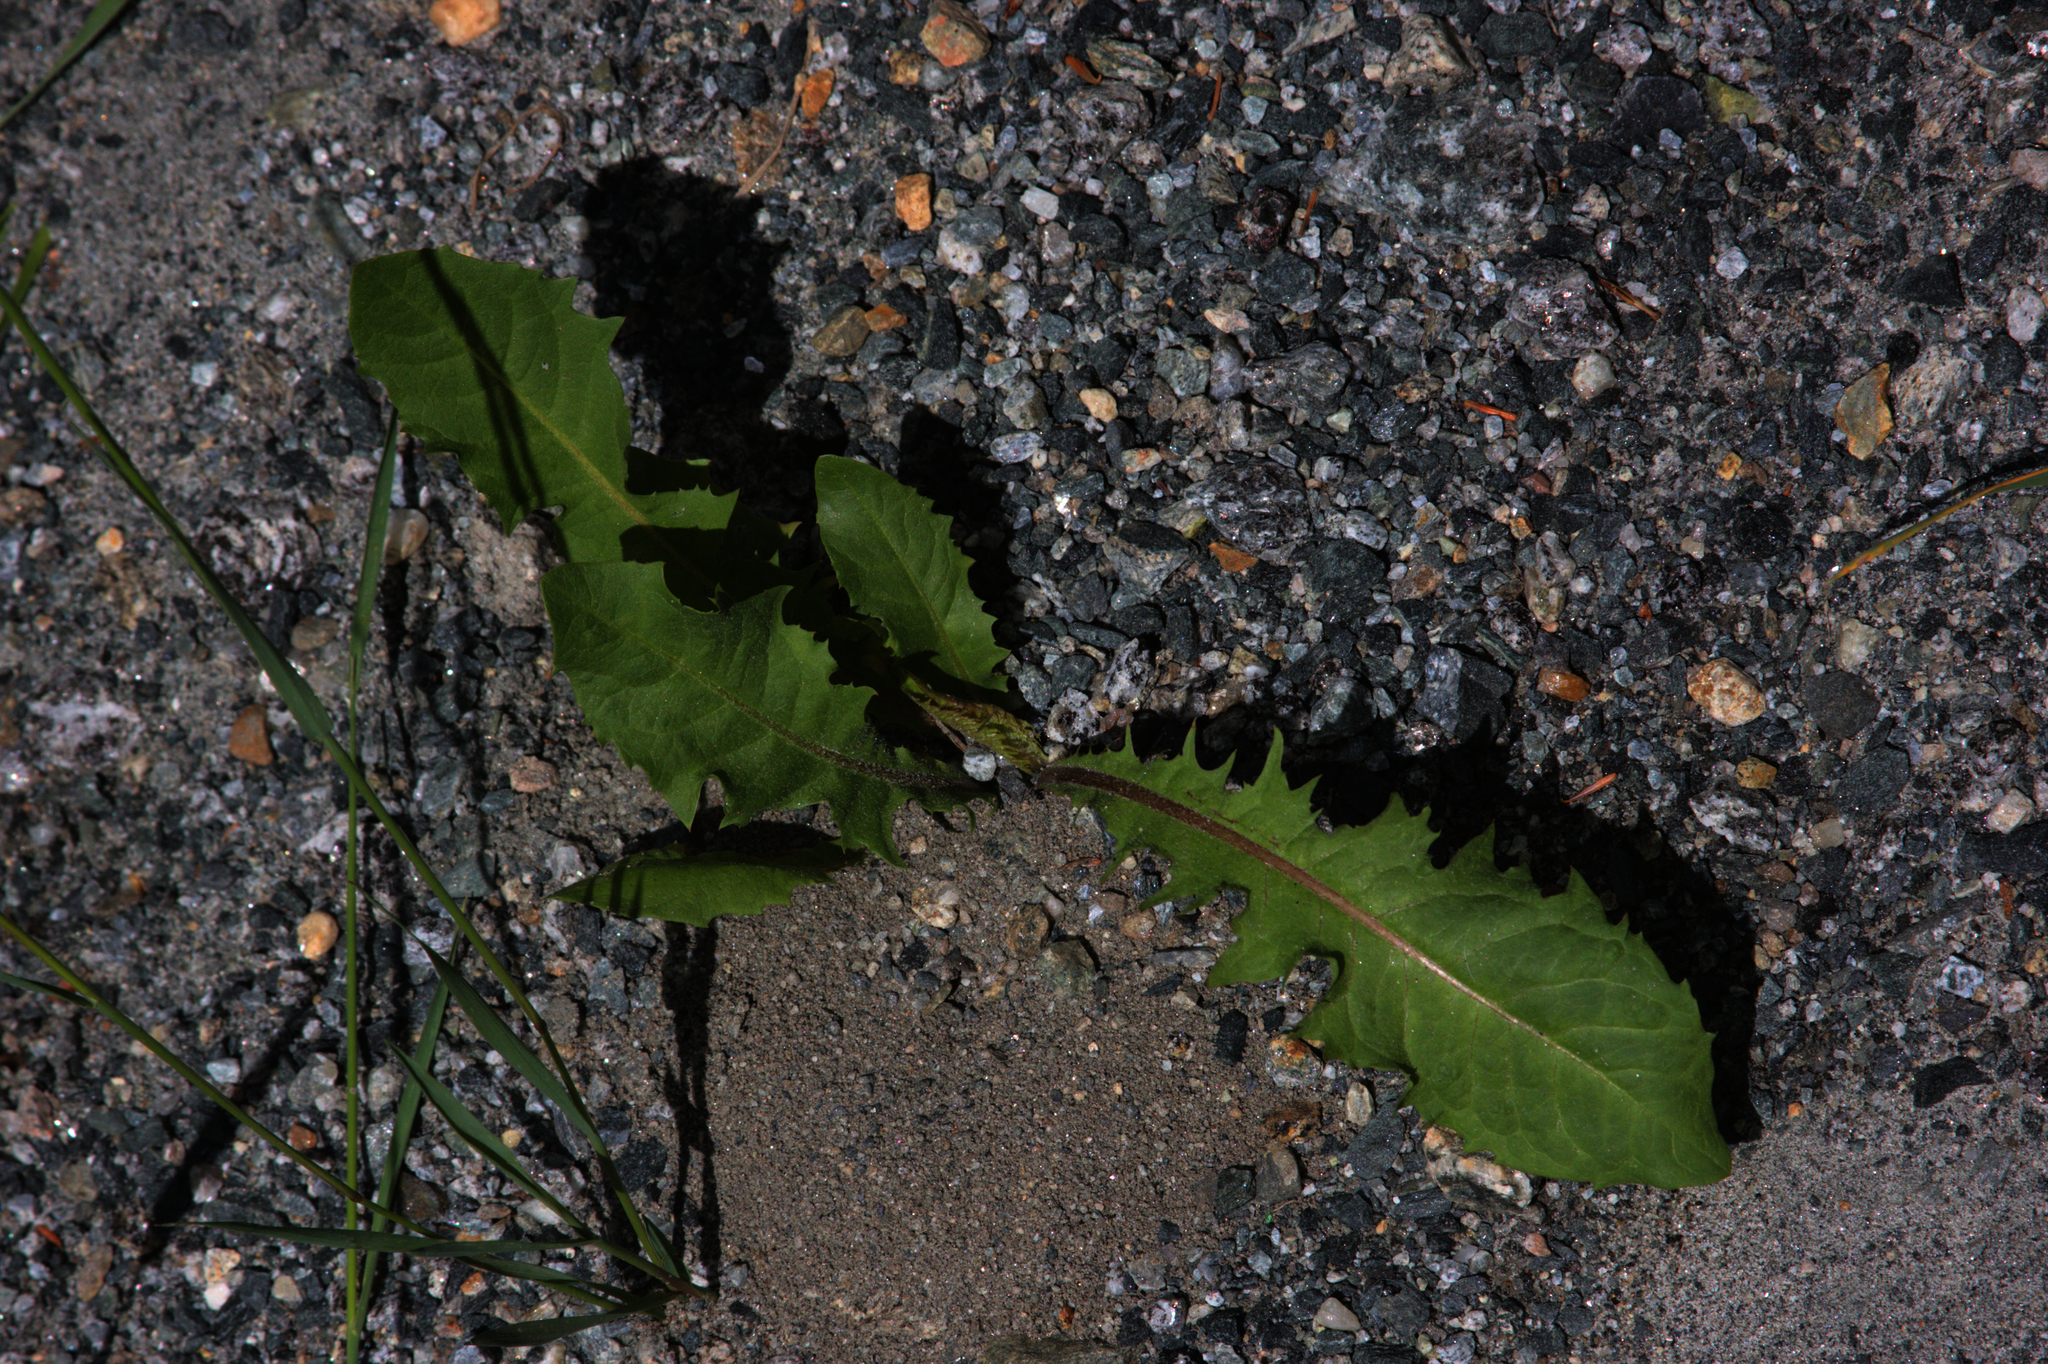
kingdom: Plantae
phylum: Tracheophyta
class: Magnoliopsida
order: Asterales
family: Asteraceae
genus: Taraxacum
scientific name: Taraxacum officinale
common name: Common dandelion
